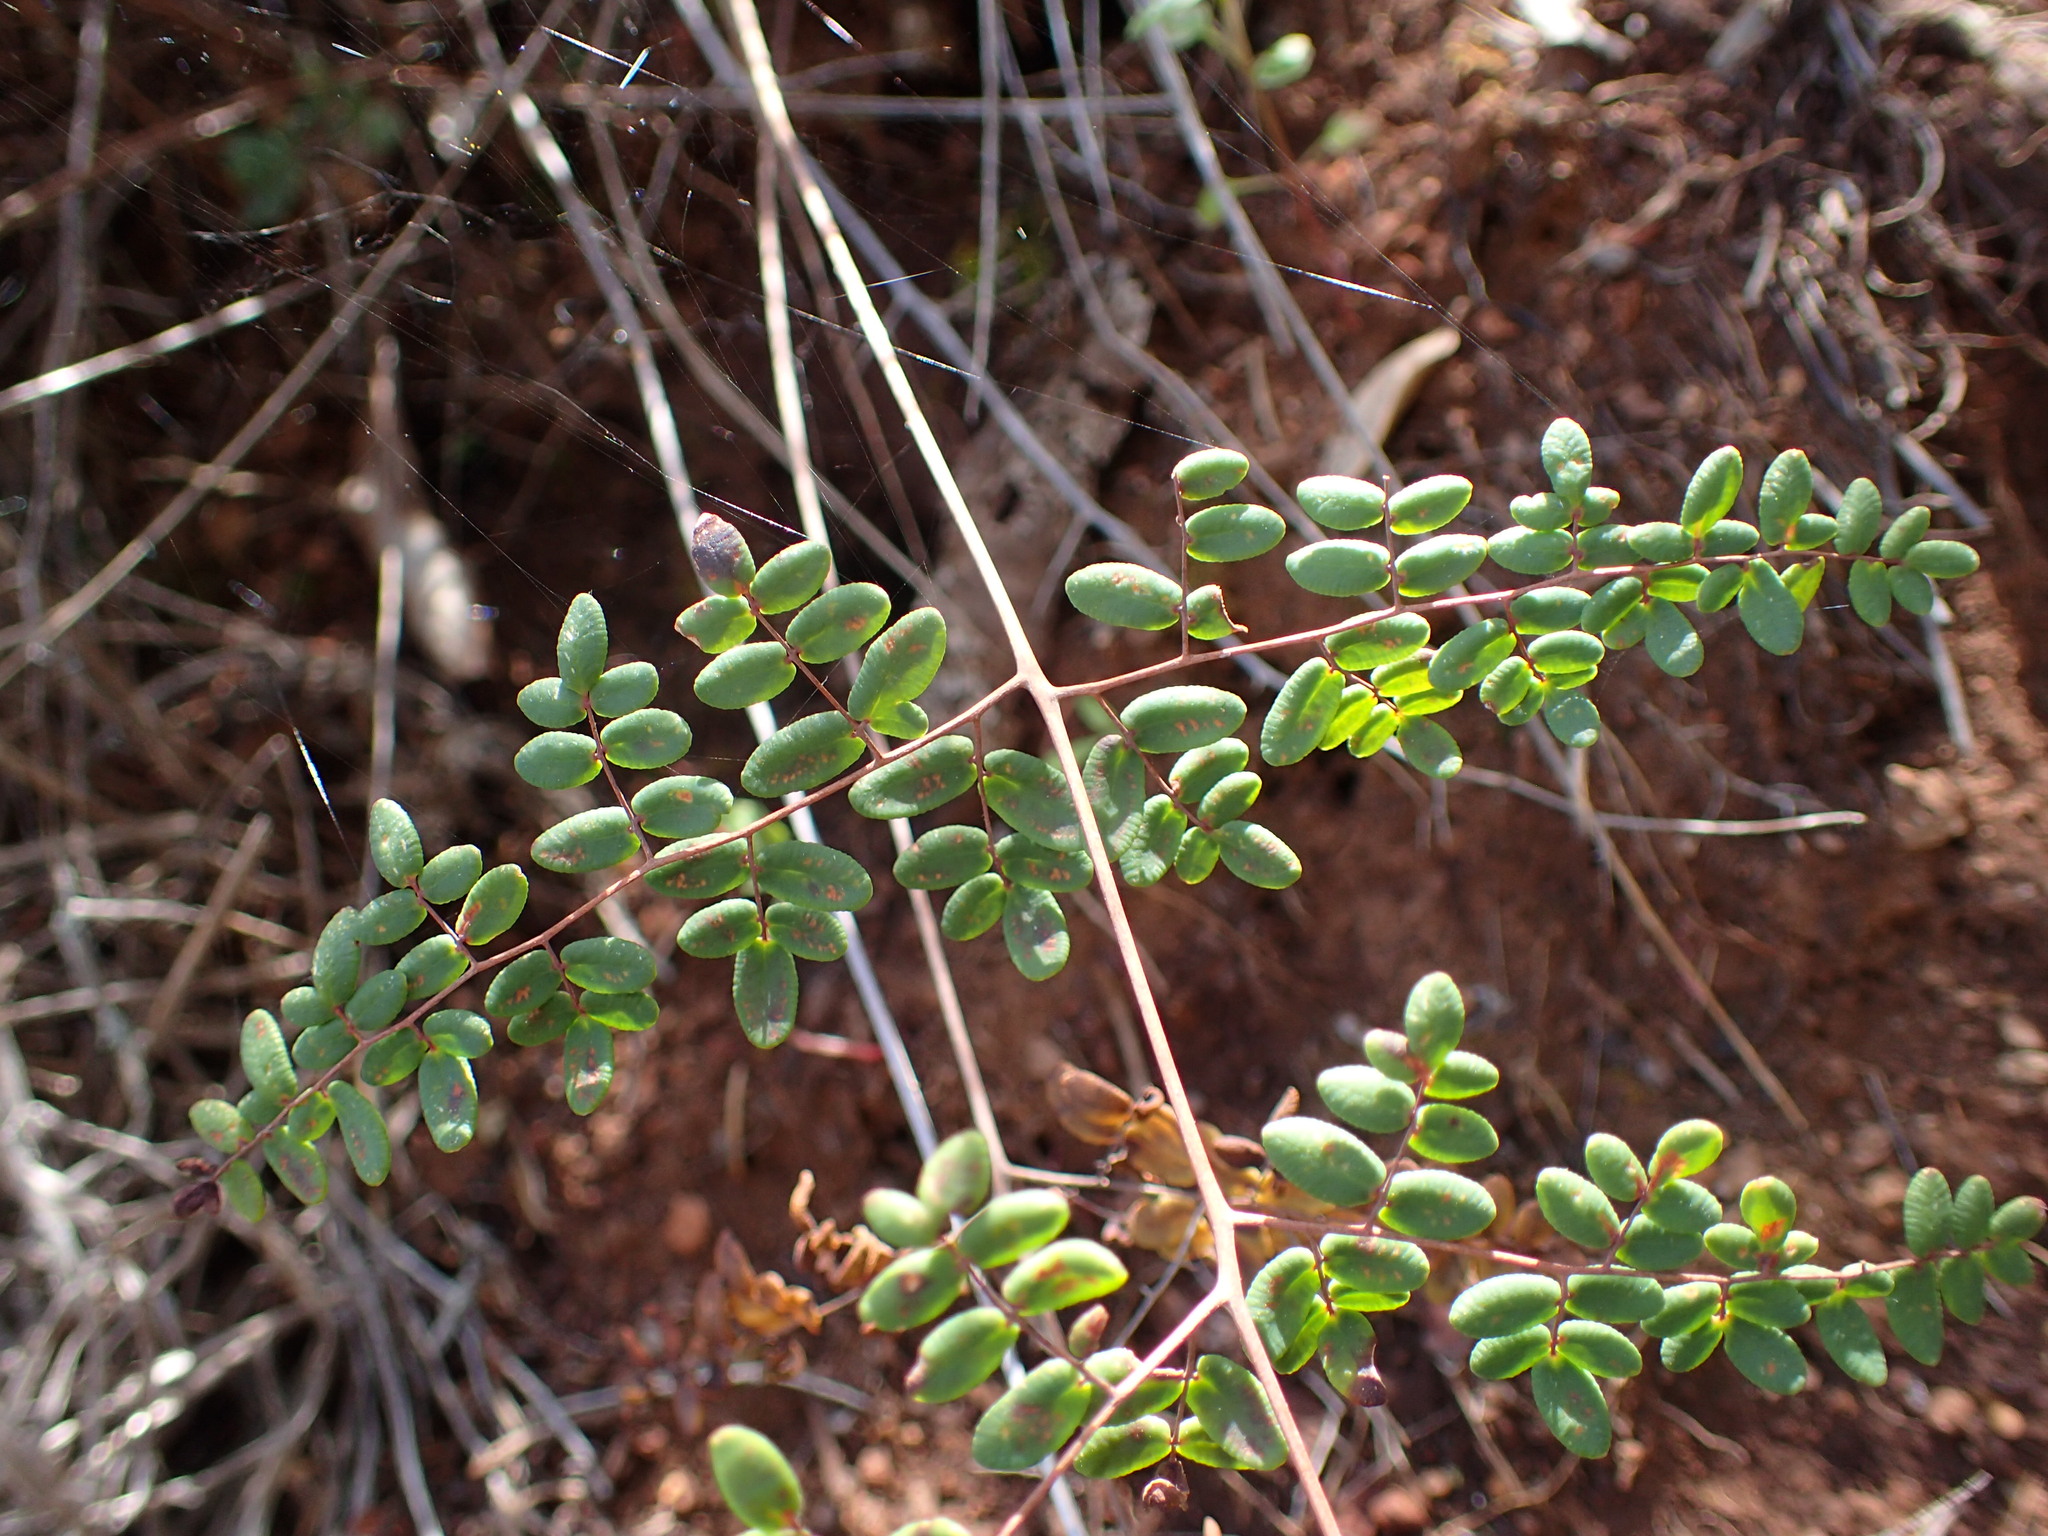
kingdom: Plantae
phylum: Tracheophyta
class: Polypodiopsida
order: Polypodiales
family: Pteridaceae
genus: Pellaea
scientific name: Pellaea andromedifolia
